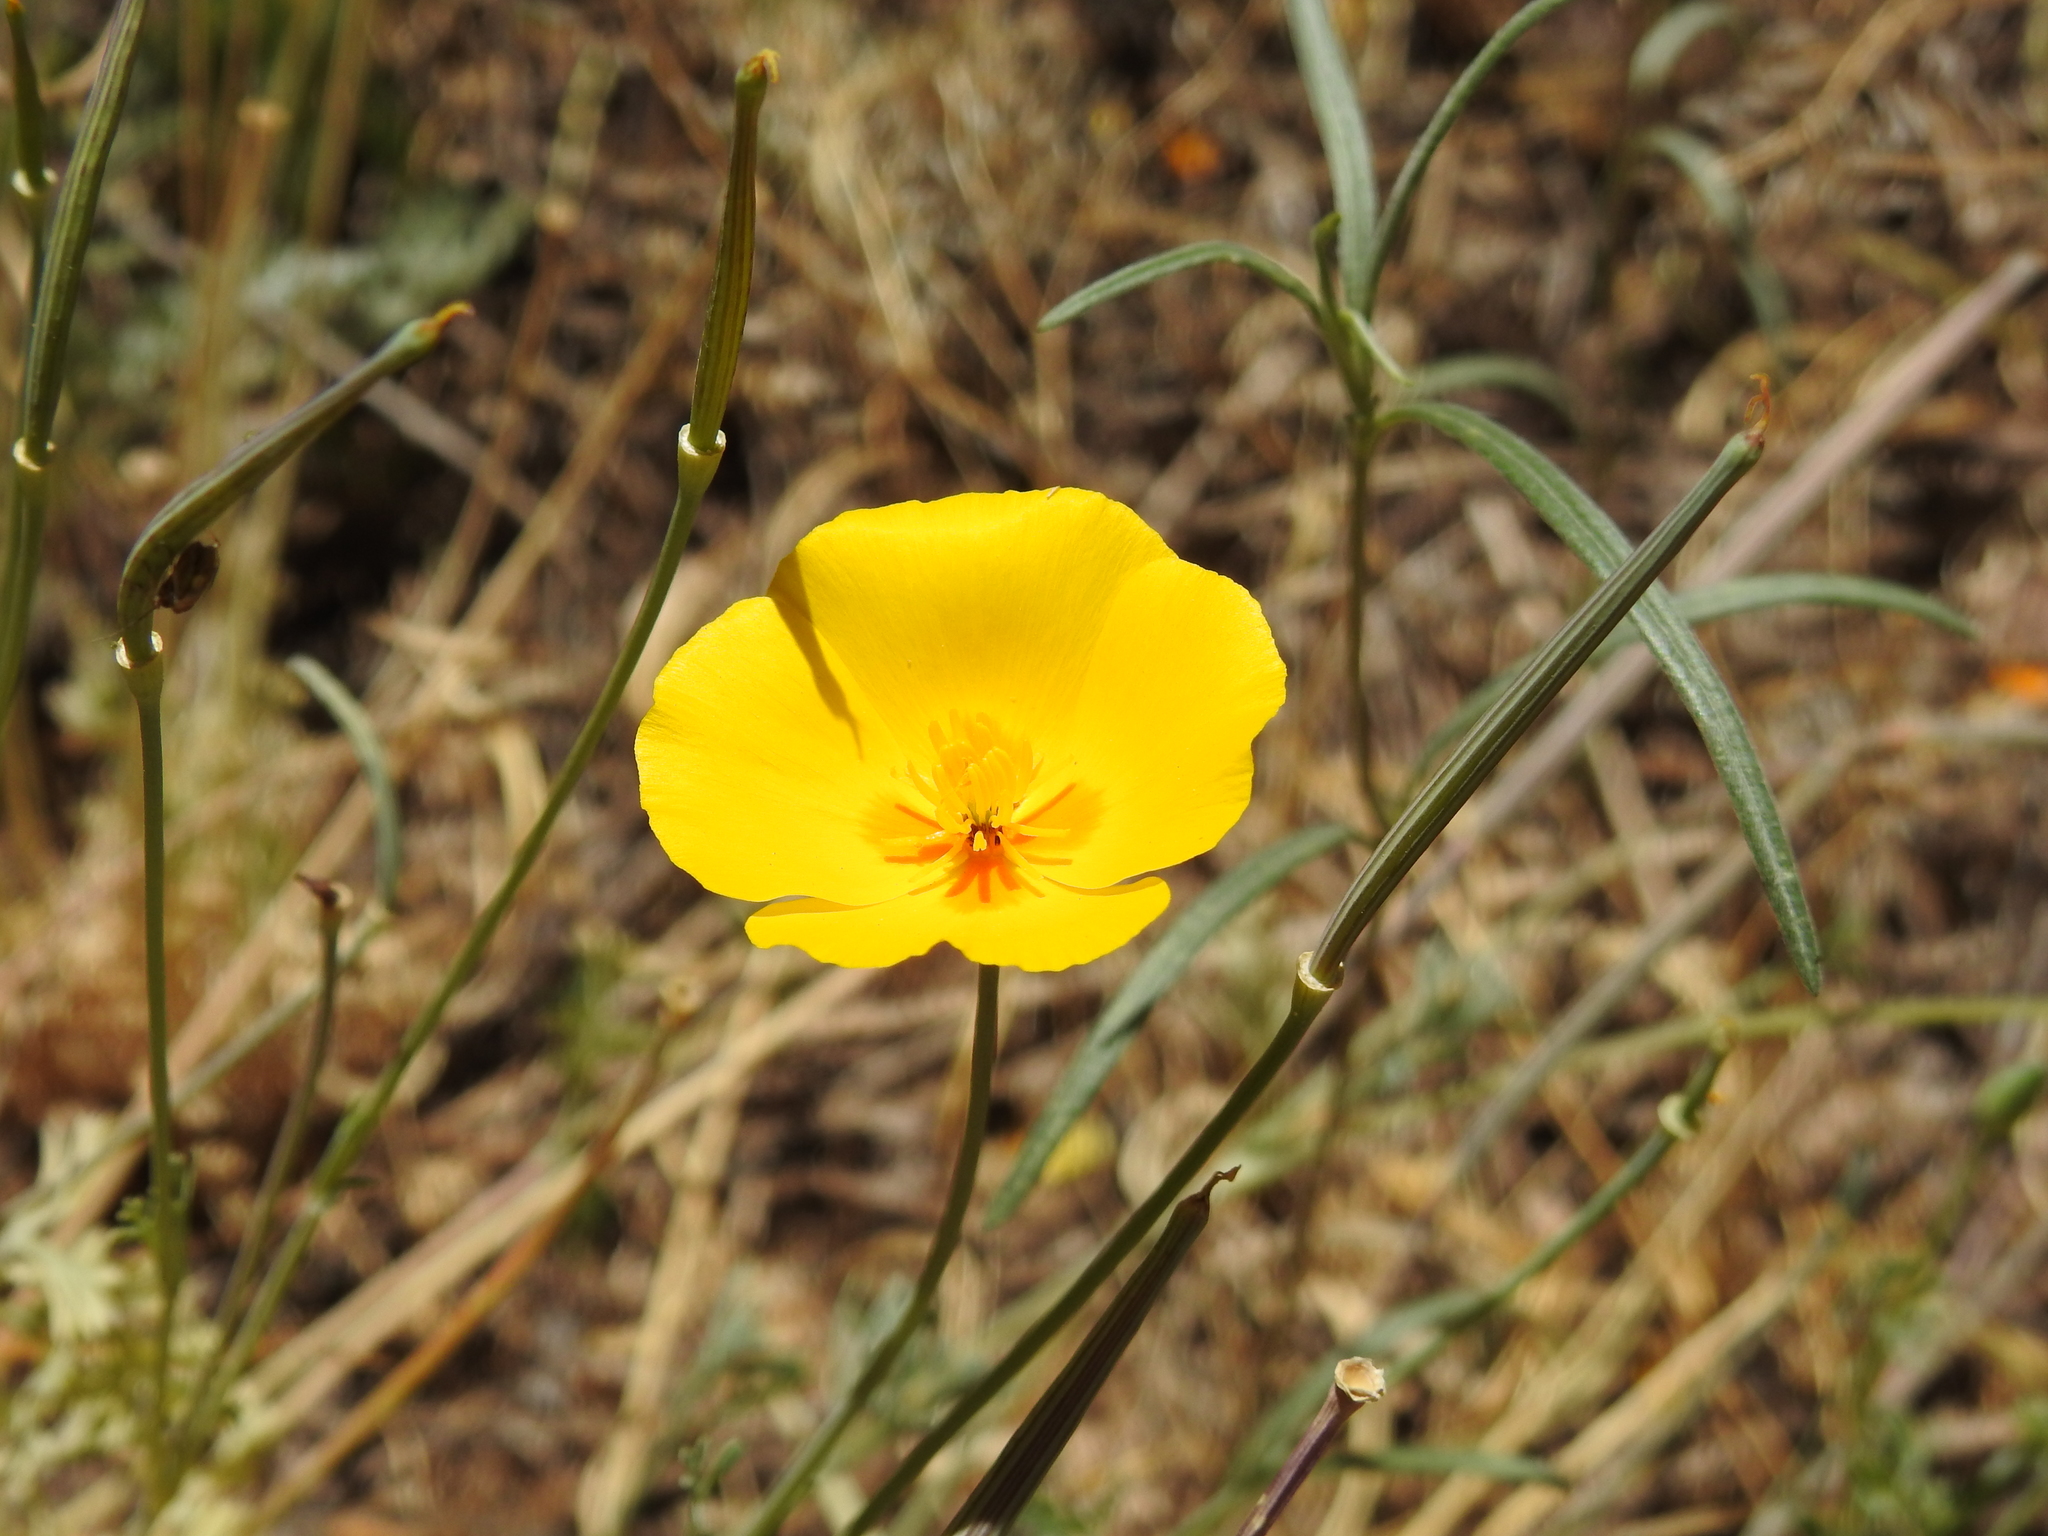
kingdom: Plantae
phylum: Tracheophyta
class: Magnoliopsida
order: Ranunculales
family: Papaveraceae
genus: Eschscholzia
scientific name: Eschscholzia californica
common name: California poppy
